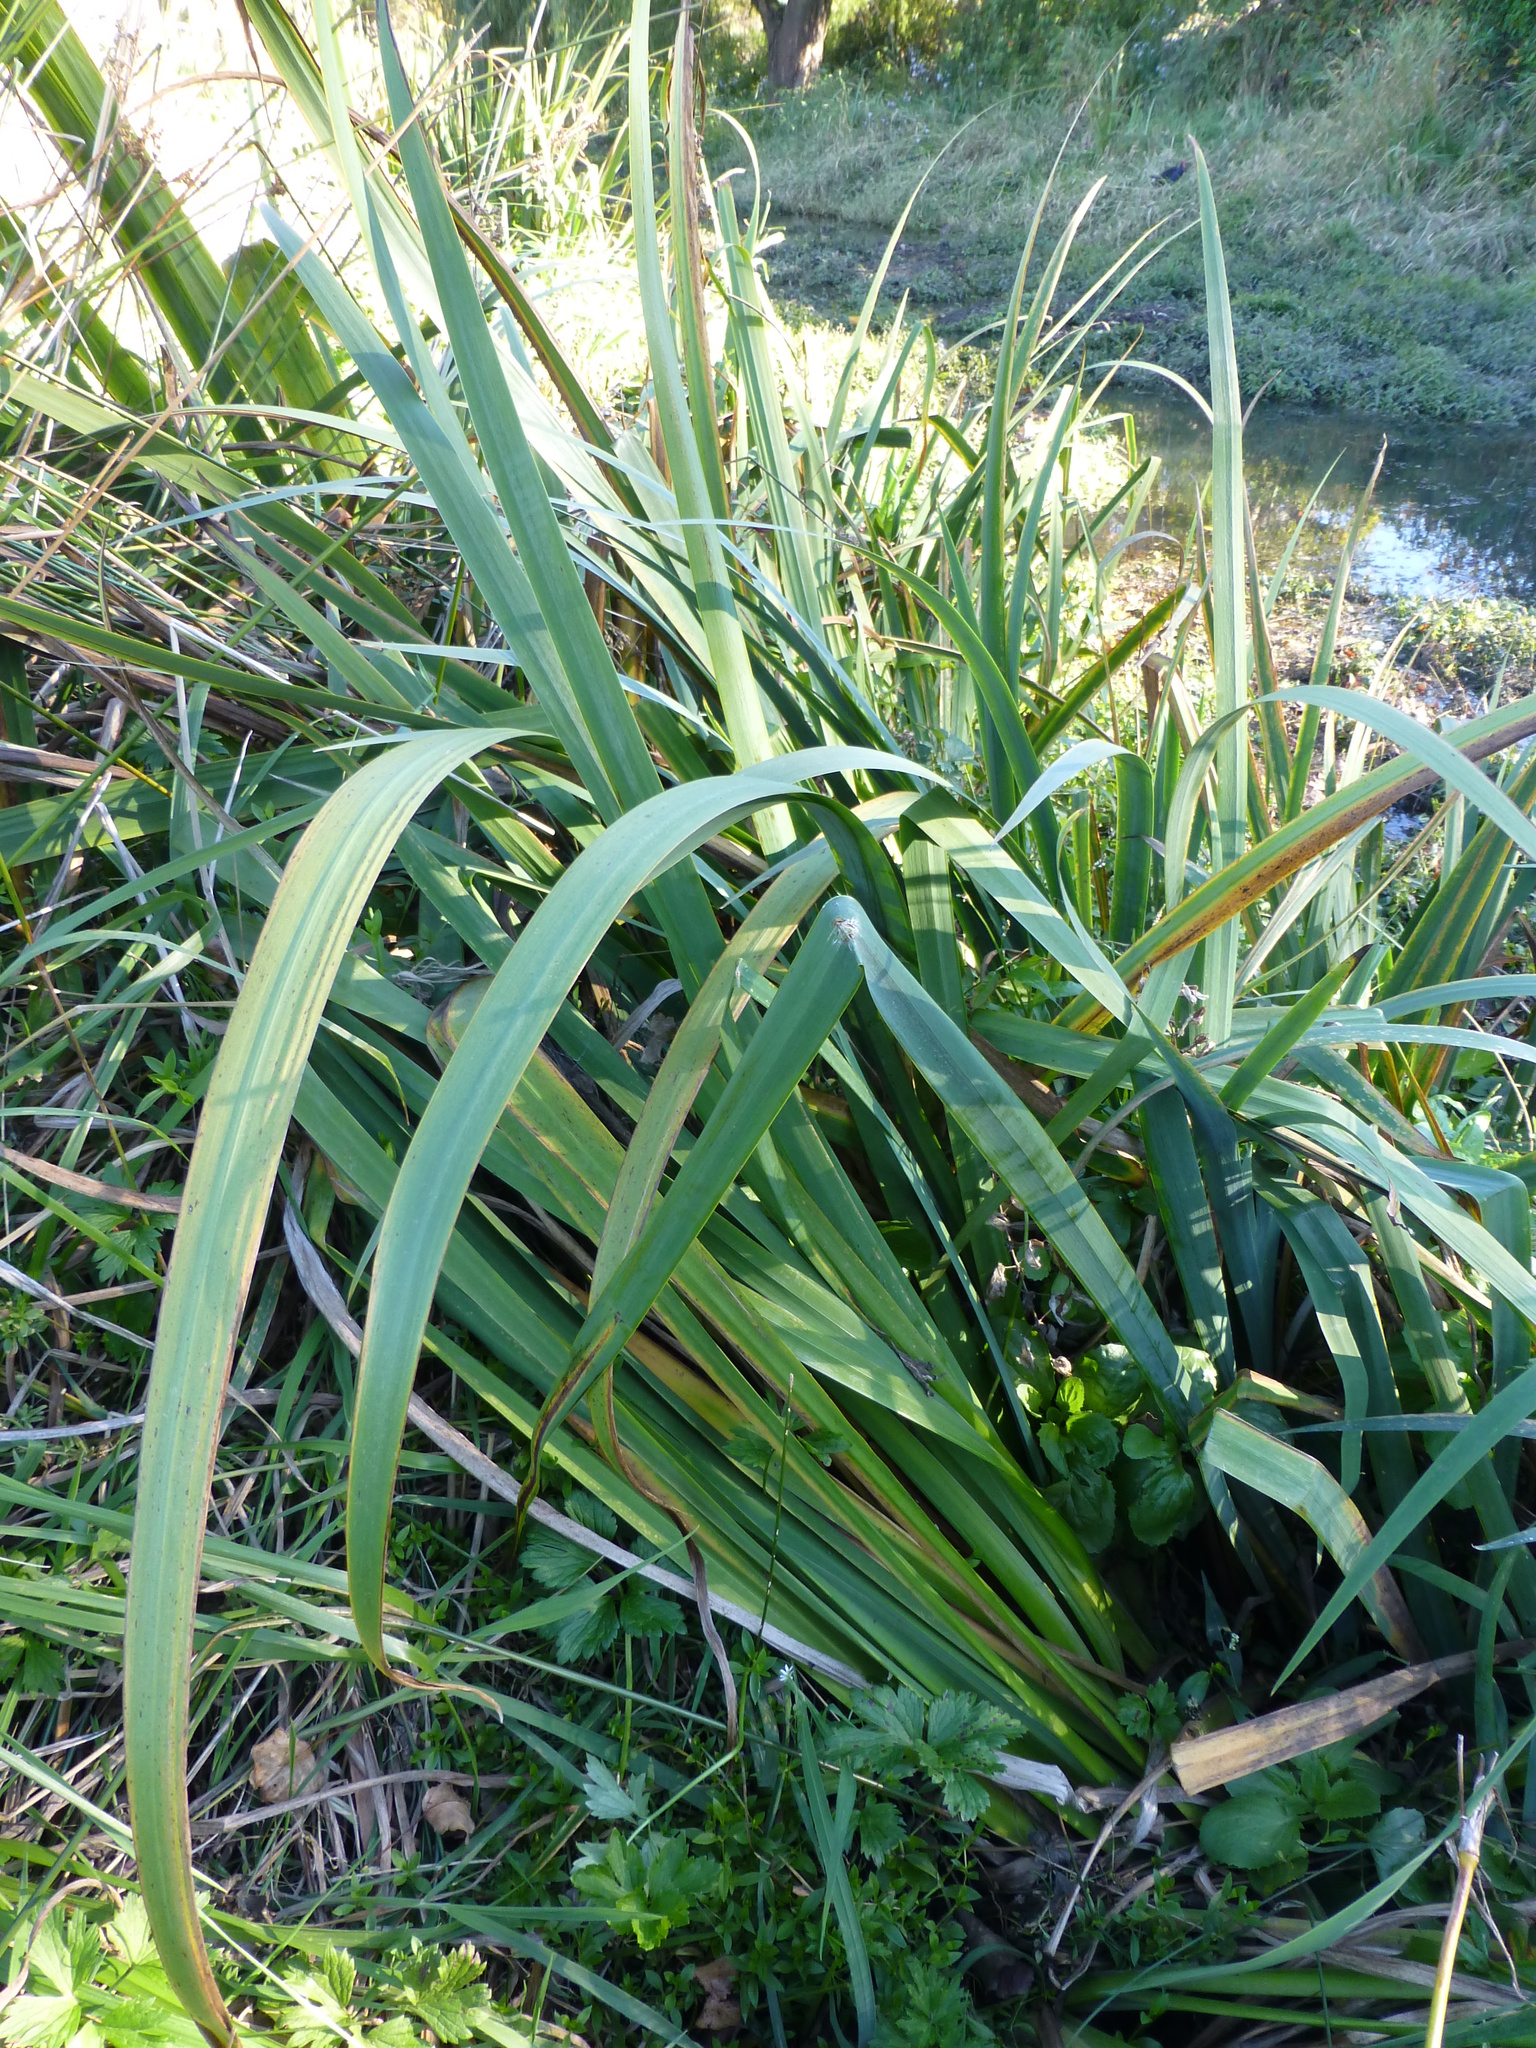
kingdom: Plantae
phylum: Tracheophyta
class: Liliopsida
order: Asparagales
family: Iridaceae
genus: Iris
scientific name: Iris pseudacorus
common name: Yellow flag
